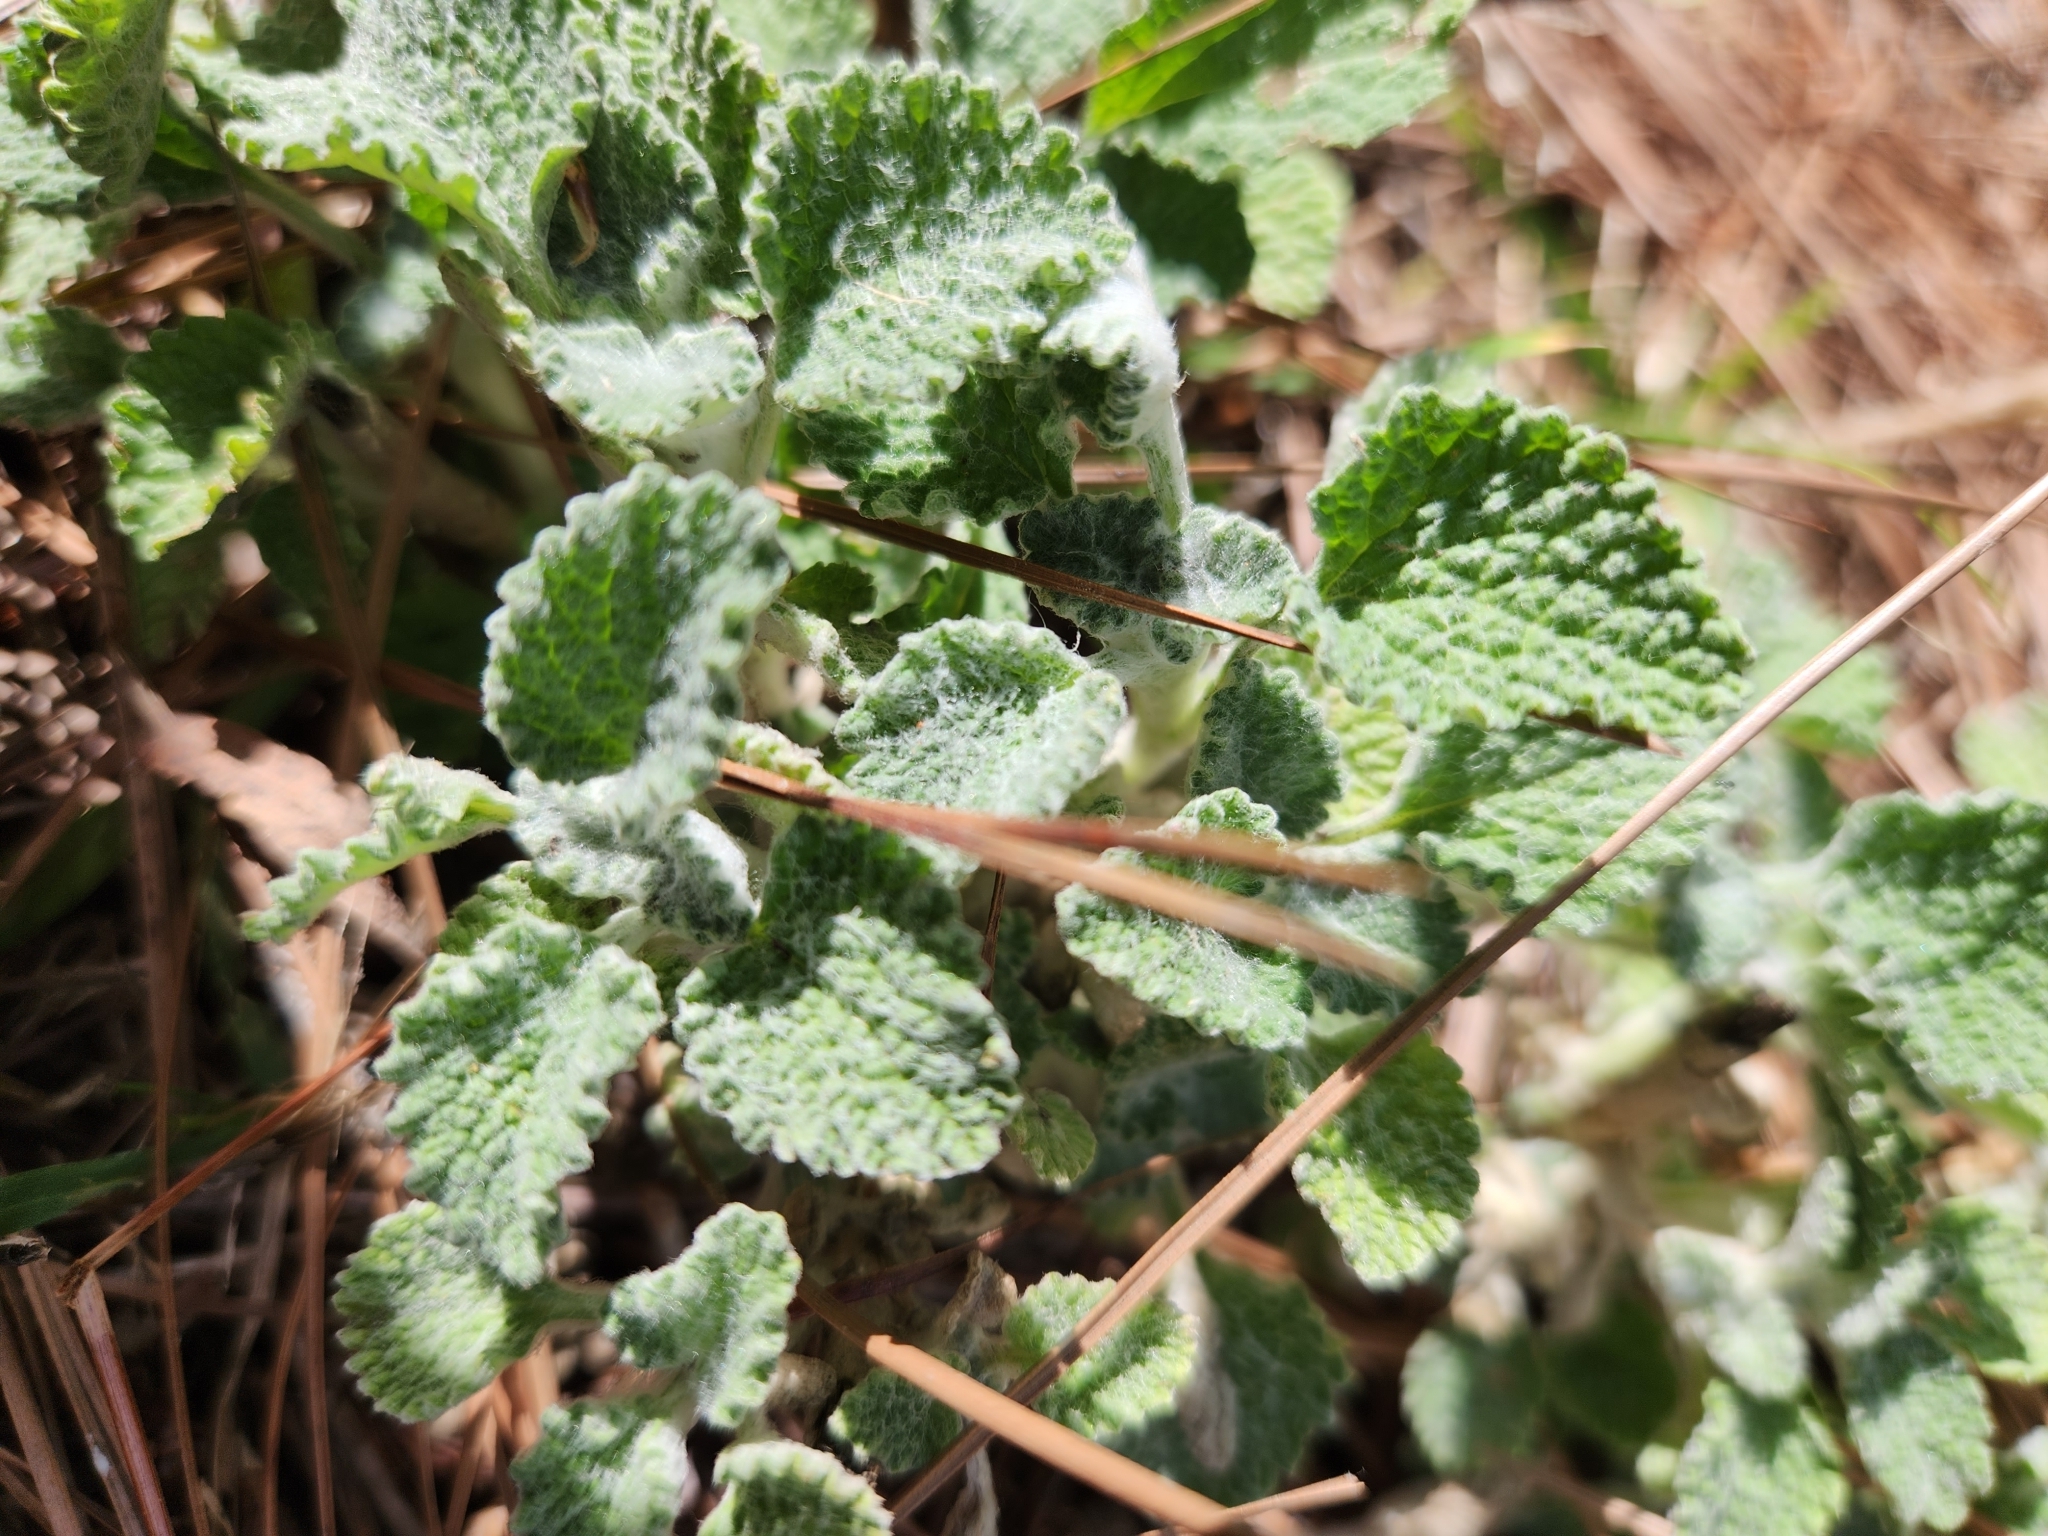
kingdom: Plantae
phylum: Tracheophyta
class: Magnoliopsida
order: Lamiales
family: Lamiaceae
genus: Marrubium
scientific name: Marrubium vulgare
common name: Horehound
